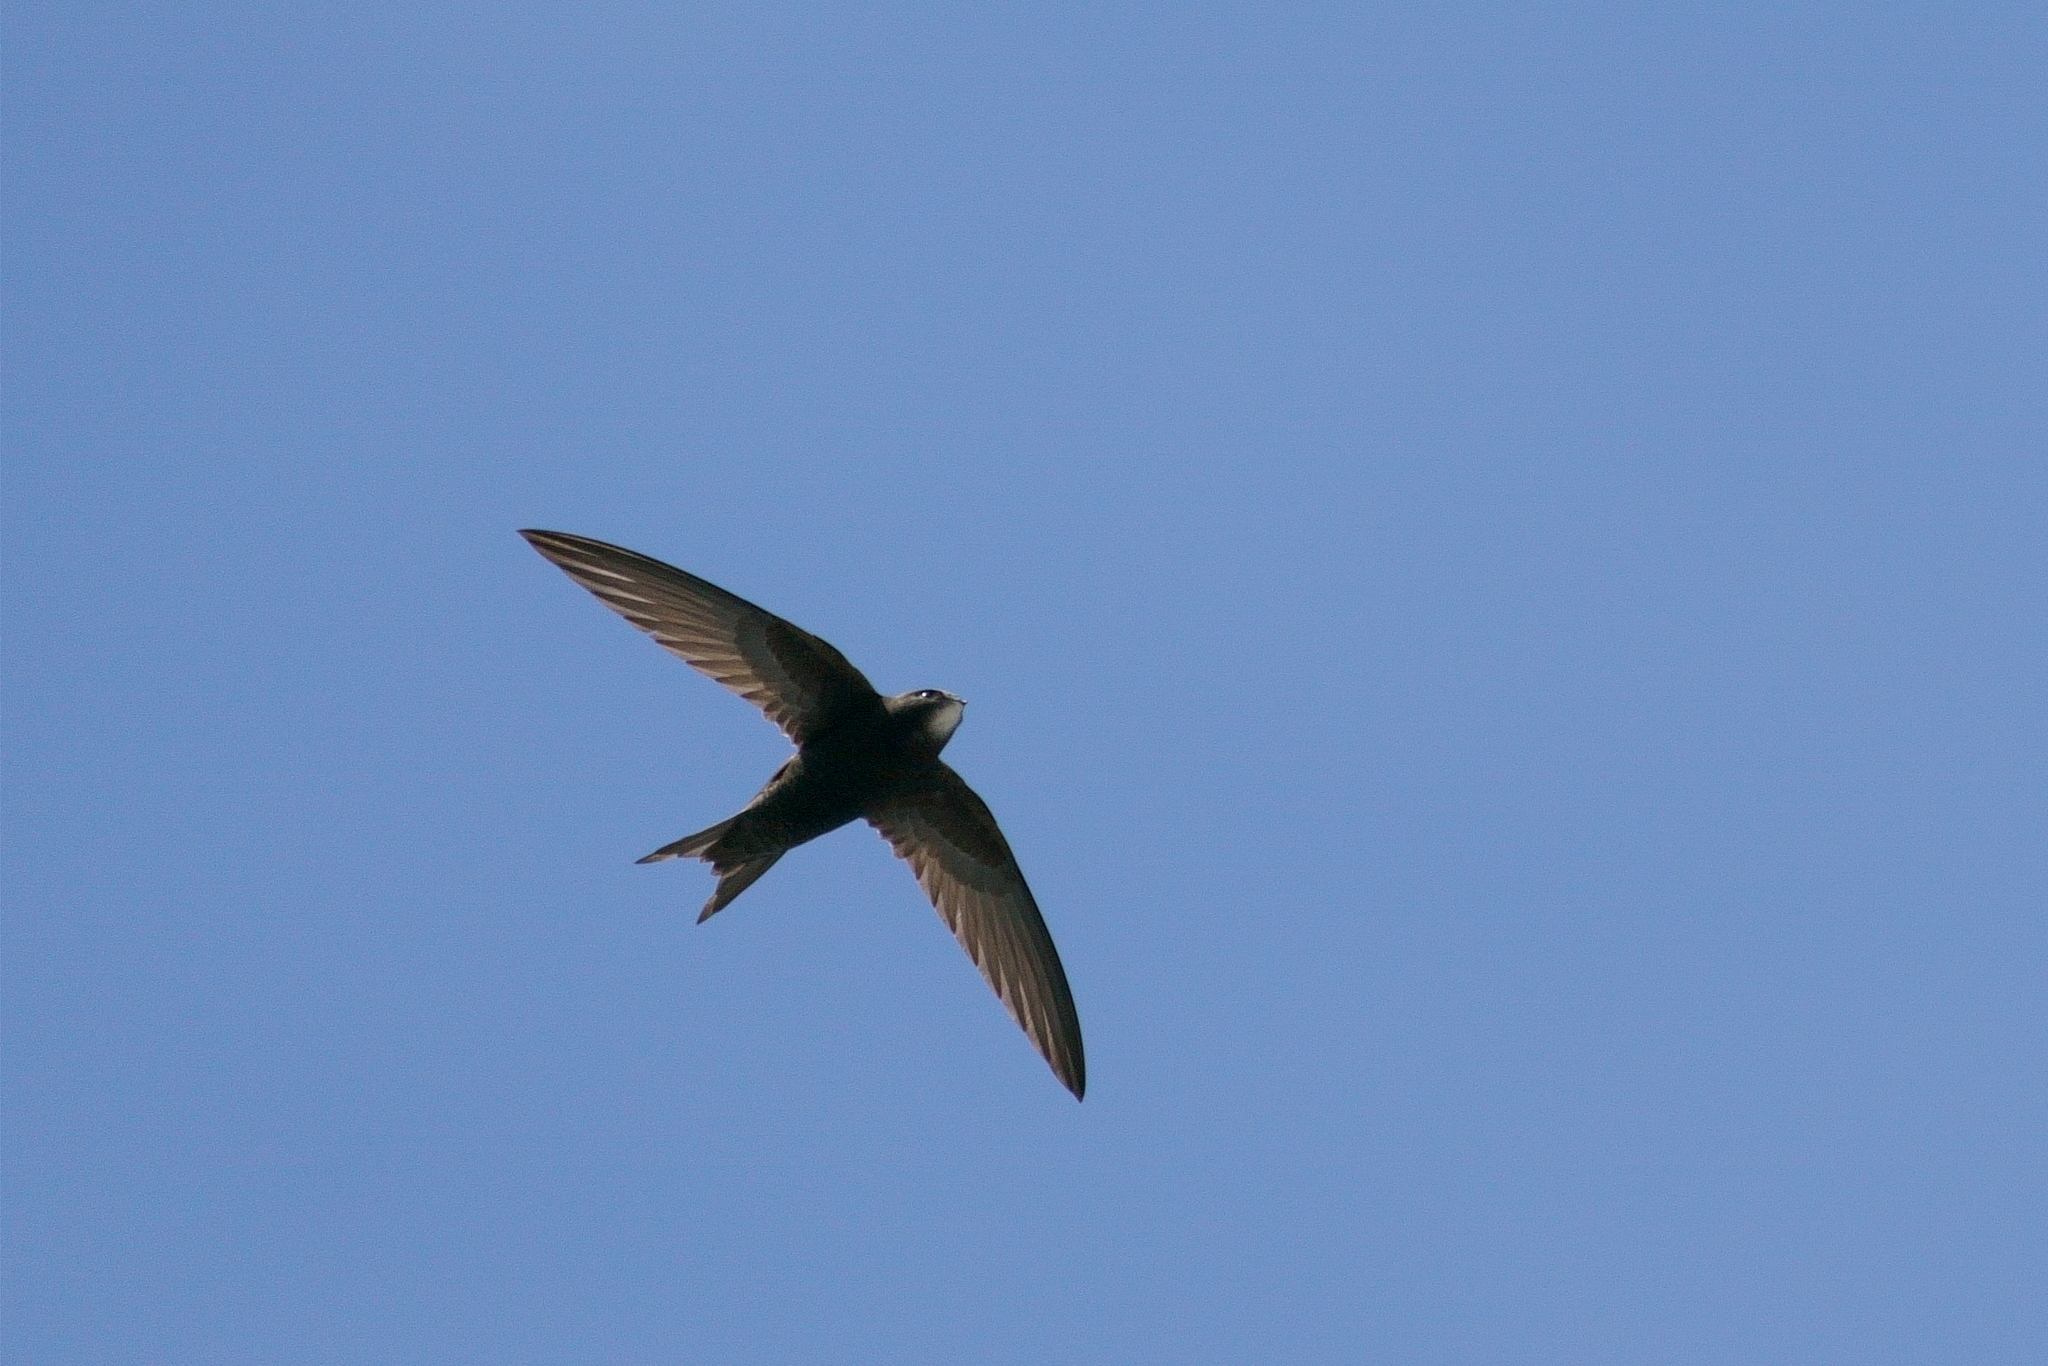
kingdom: Animalia
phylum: Chordata
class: Aves
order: Apodiformes
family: Apodidae
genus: Apus
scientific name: Apus apus
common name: Common swift
